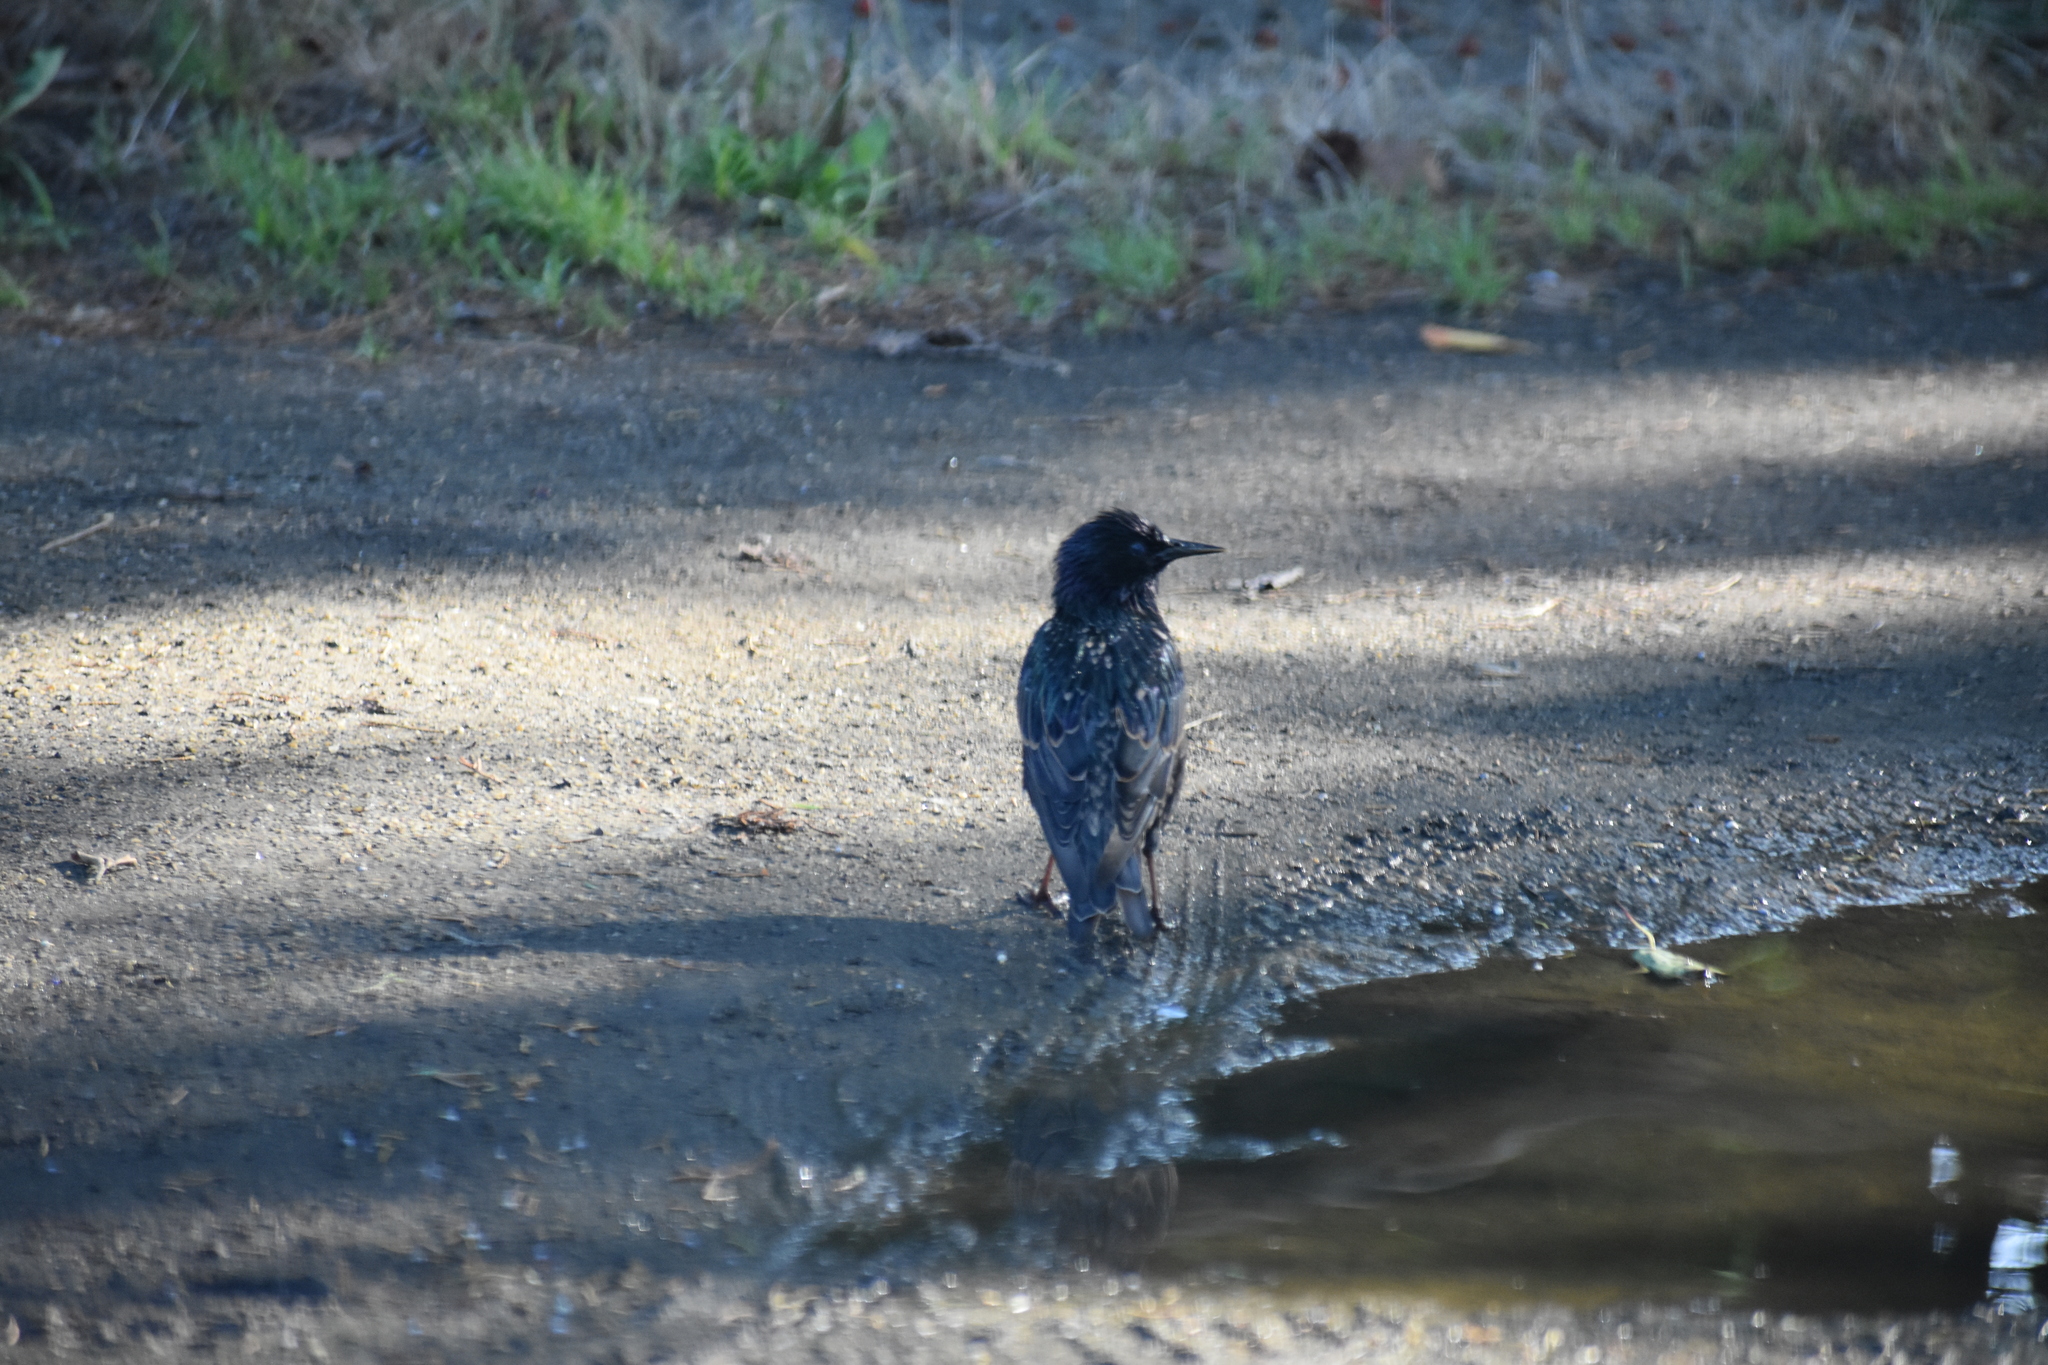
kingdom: Animalia
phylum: Chordata
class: Aves
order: Passeriformes
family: Sturnidae
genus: Sturnus
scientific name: Sturnus vulgaris
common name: Common starling
